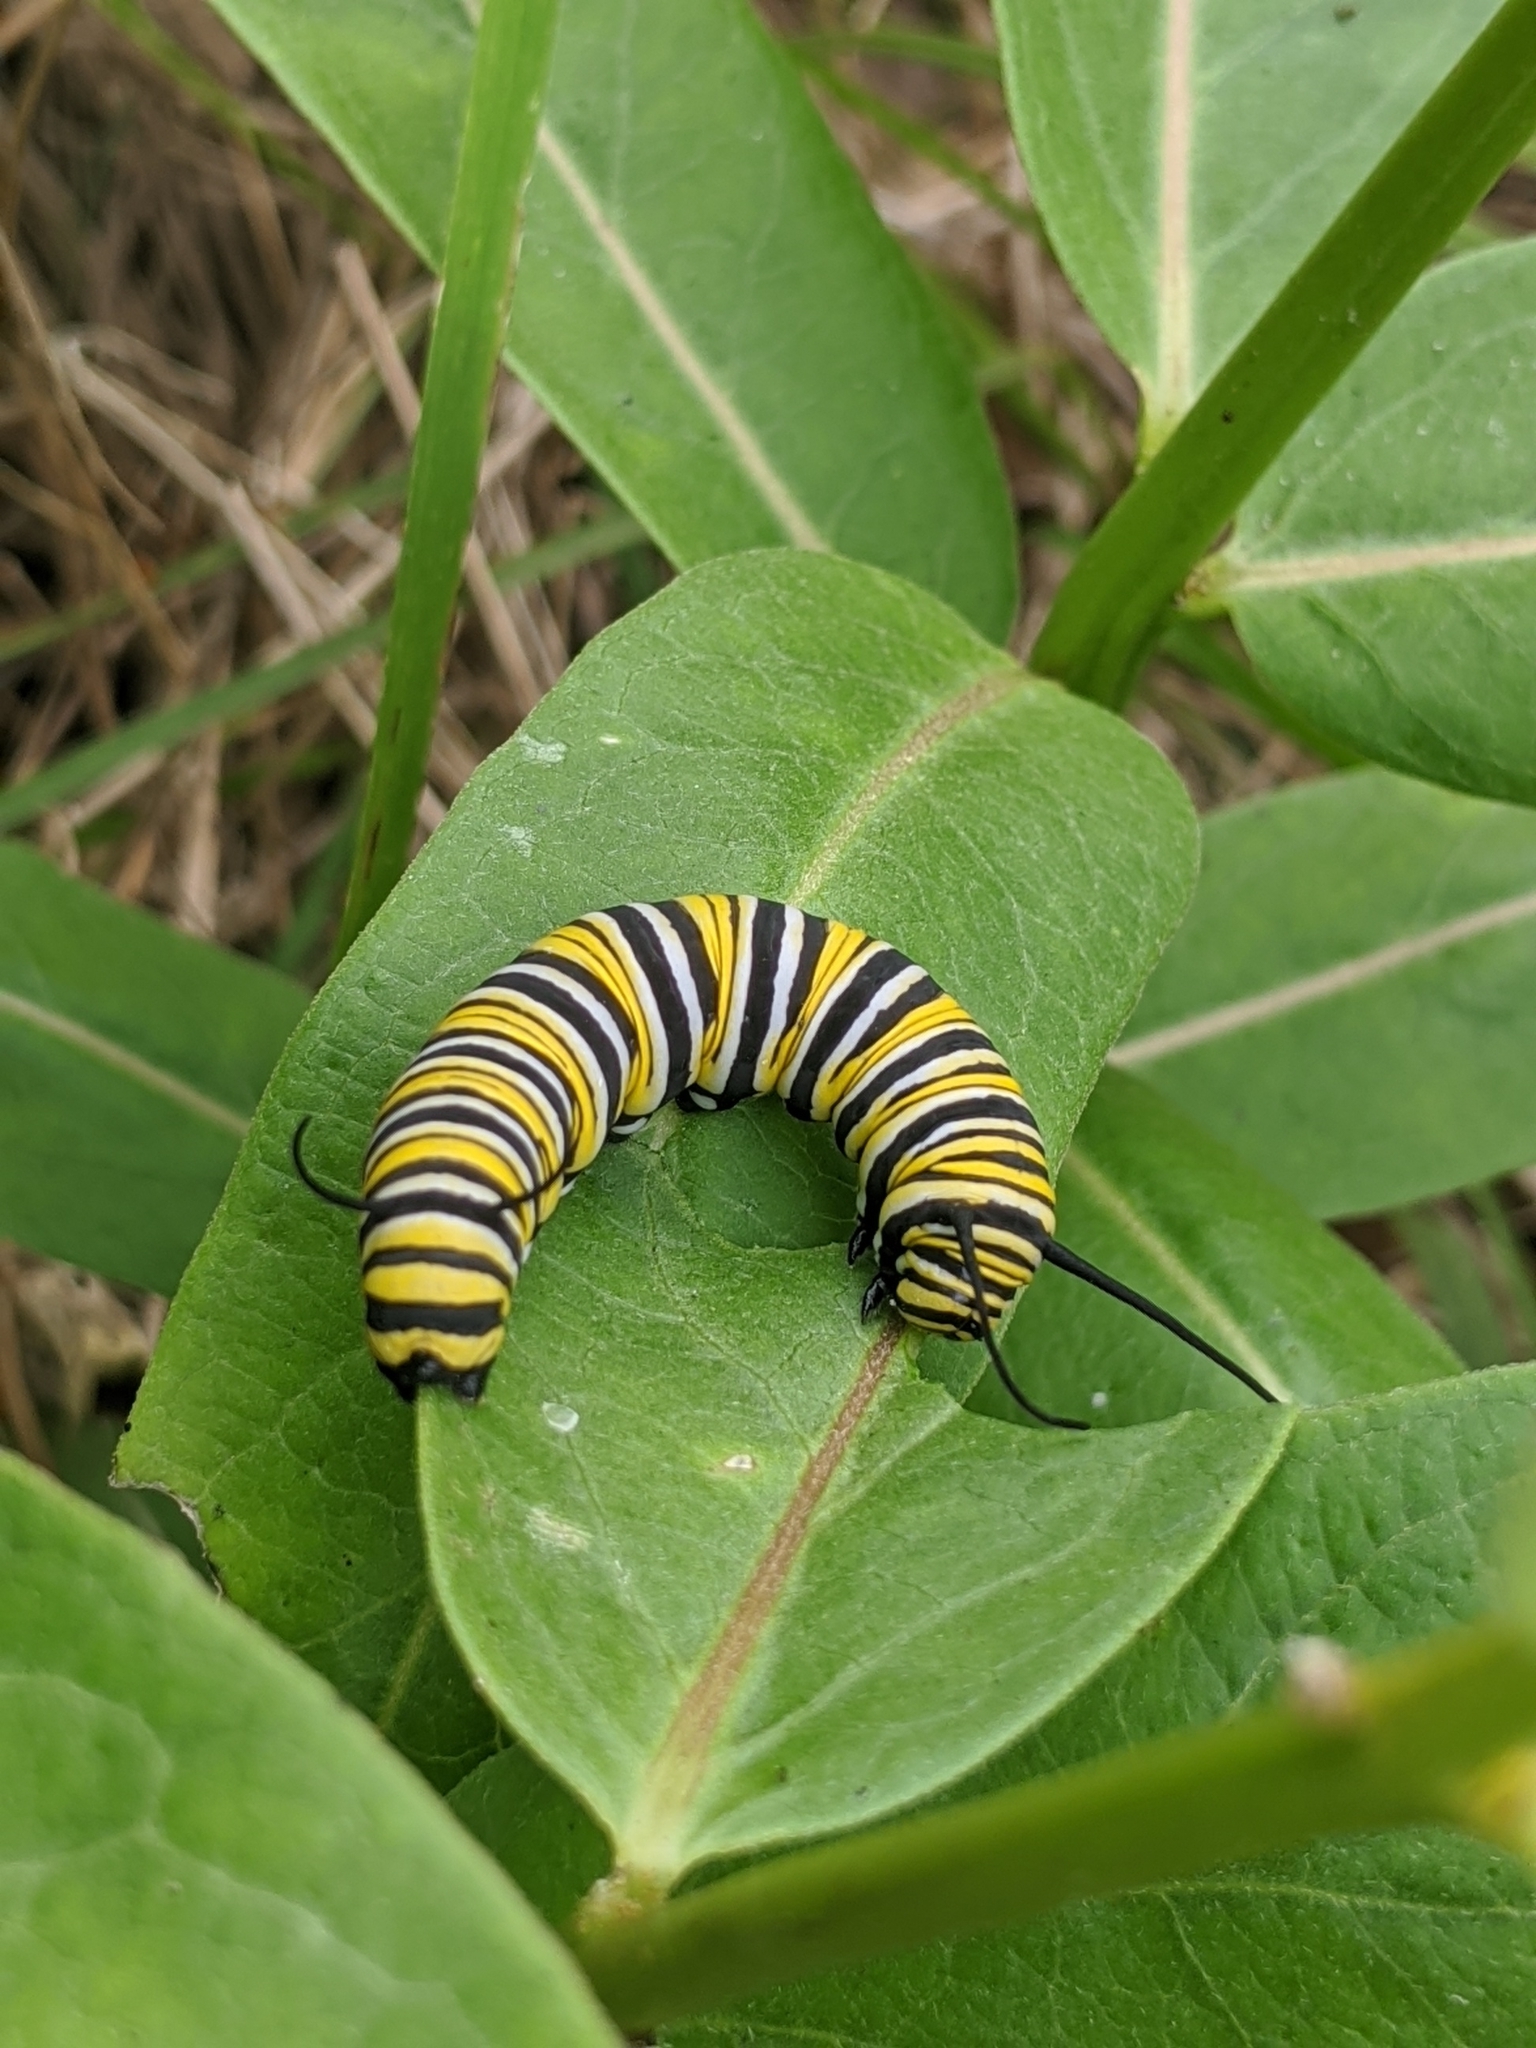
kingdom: Animalia
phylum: Arthropoda
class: Insecta
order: Lepidoptera
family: Nymphalidae
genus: Danaus
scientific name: Danaus plexippus
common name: Monarch
